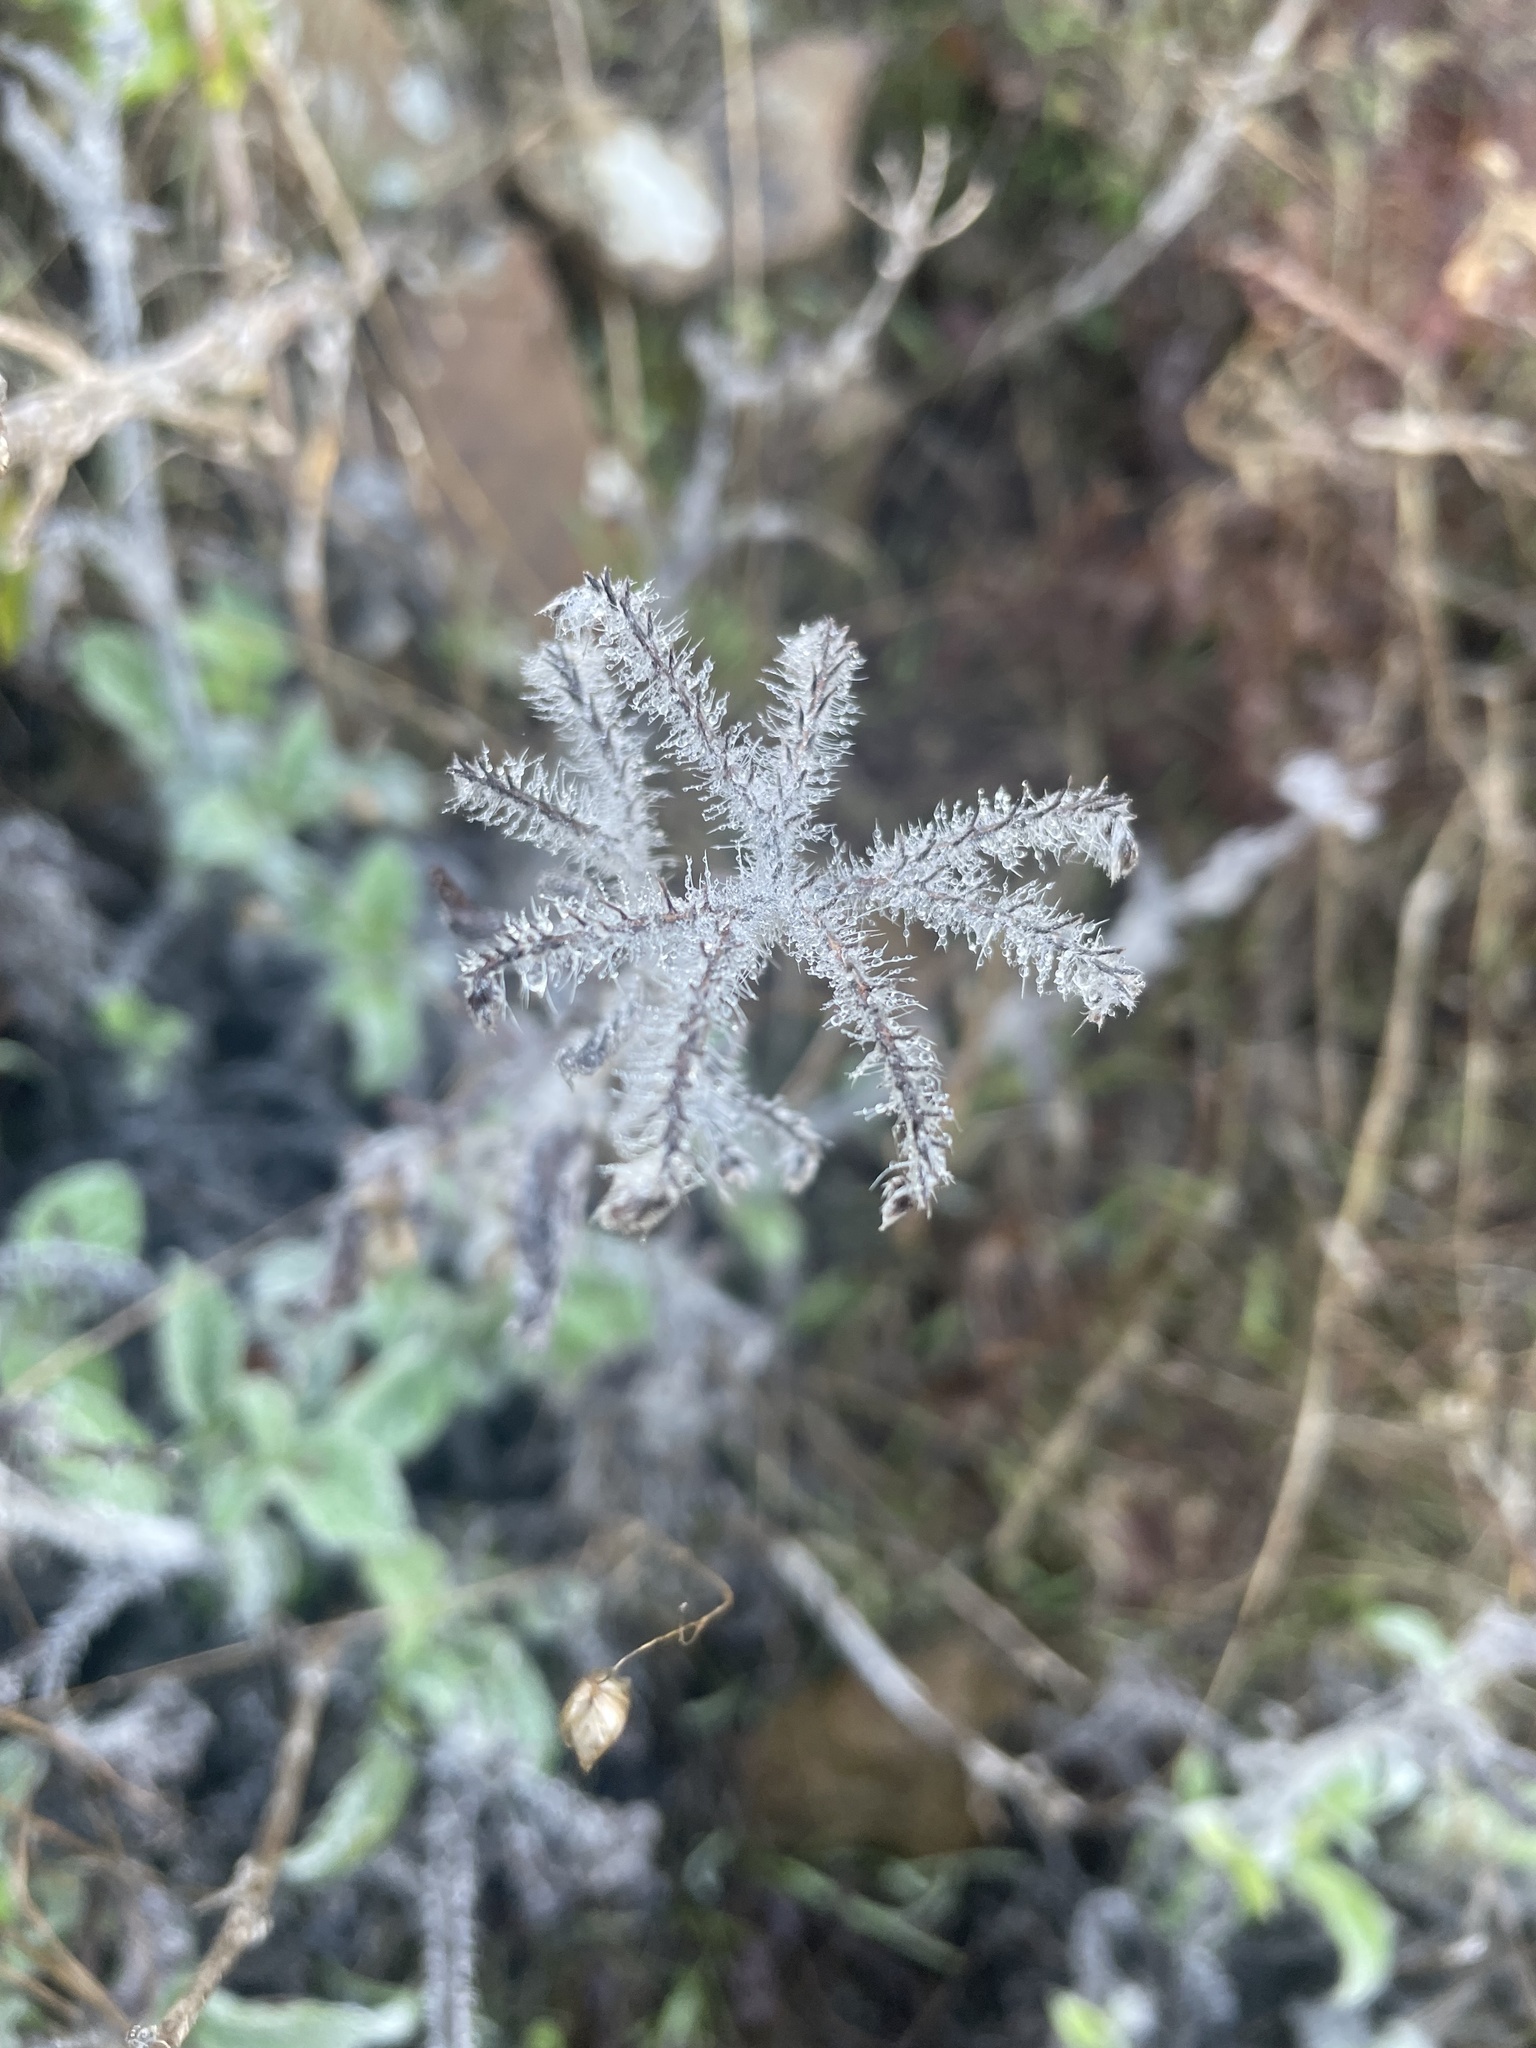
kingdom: Plantae
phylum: Tracheophyta
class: Magnoliopsida
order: Boraginales
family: Hydrophyllaceae
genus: Phacelia
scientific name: Phacelia californica
